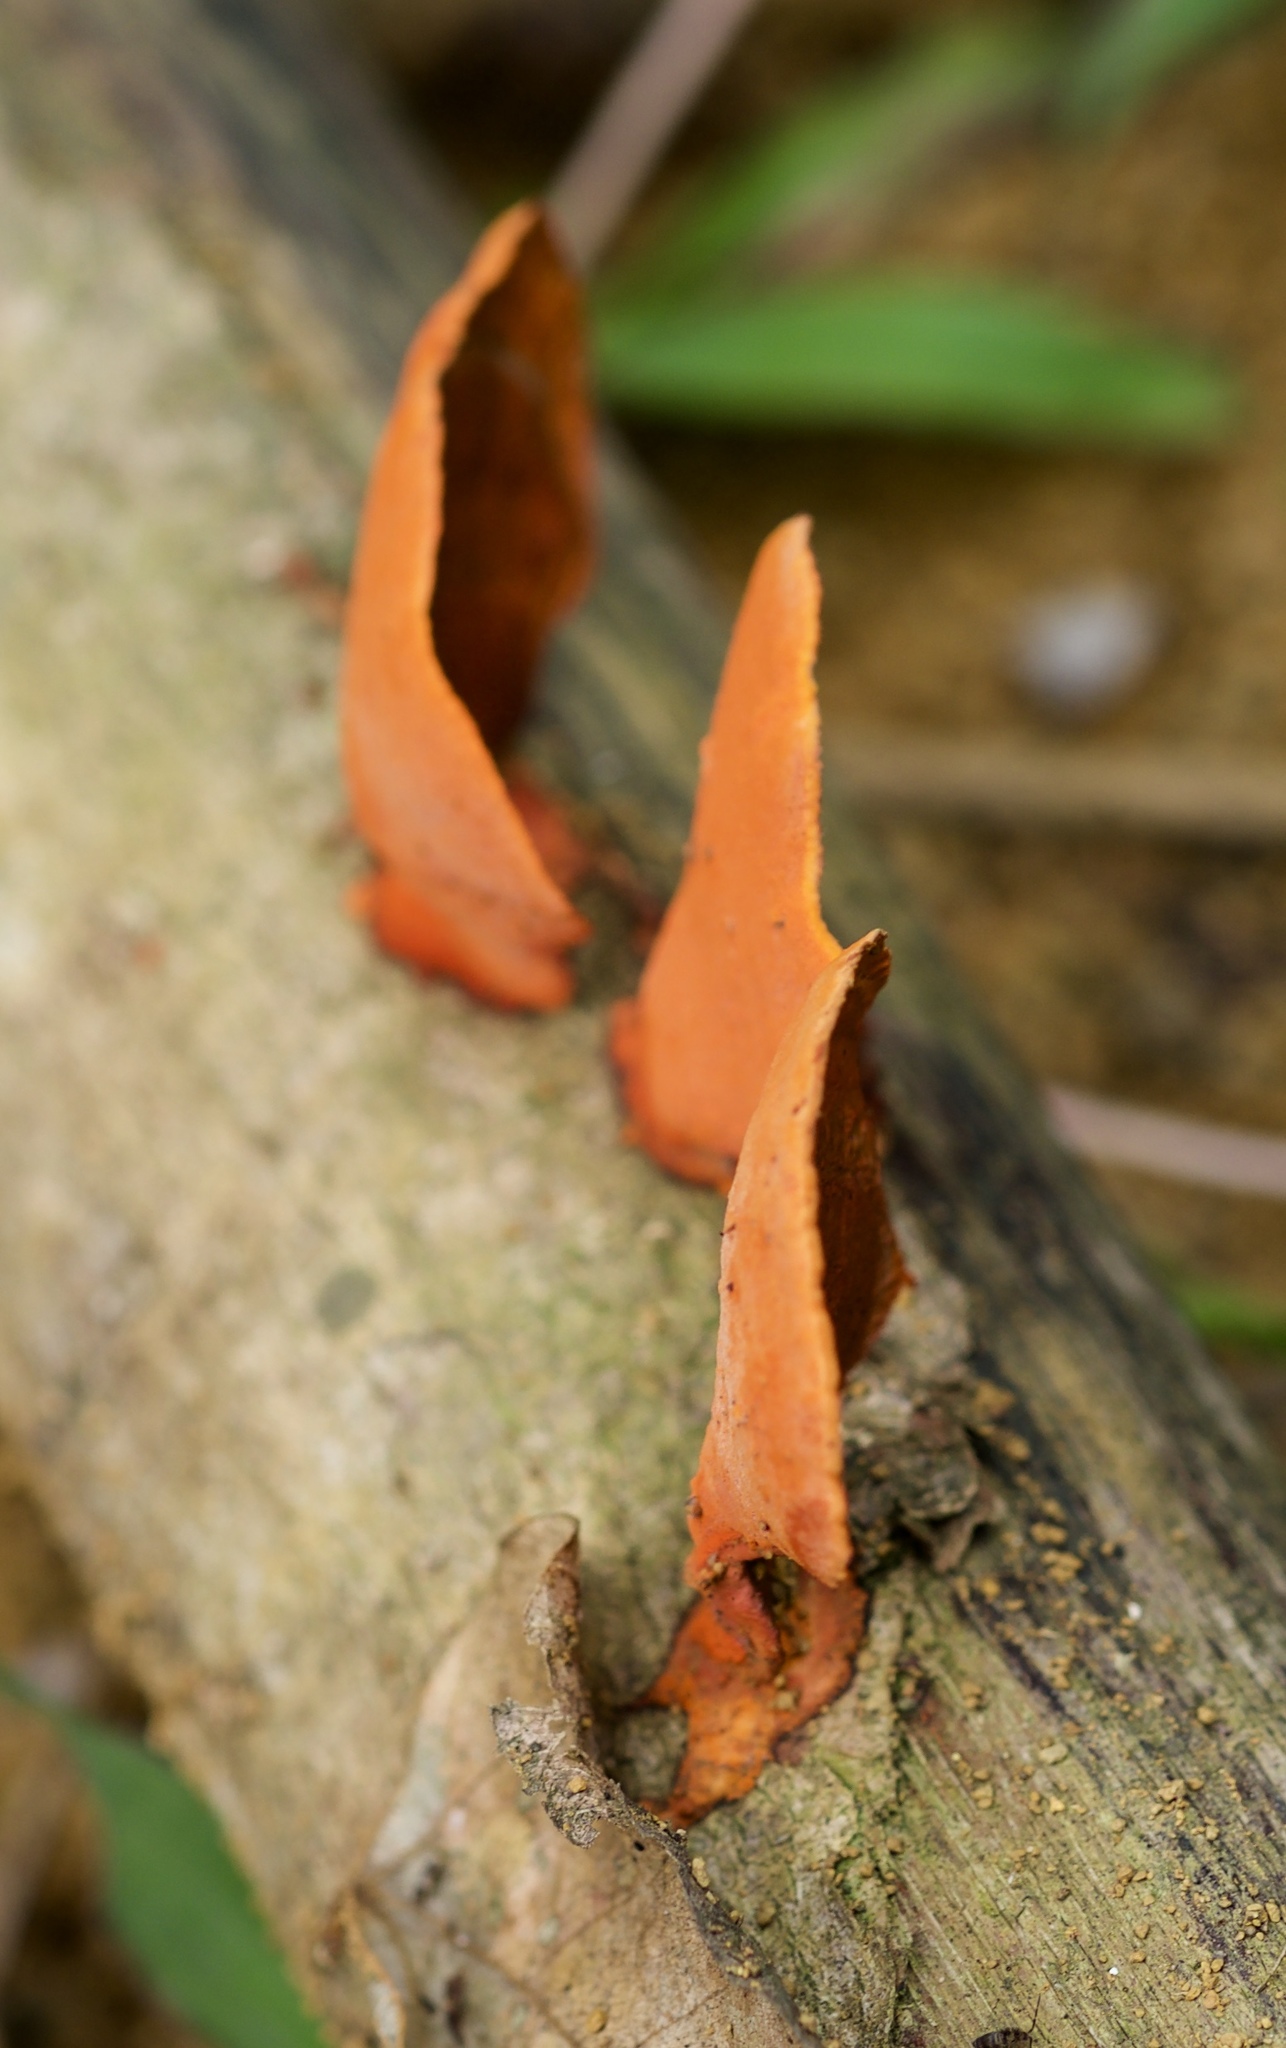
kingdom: Fungi
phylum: Basidiomycota
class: Agaricomycetes
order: Polyporales
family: Polyporaceae
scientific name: Polyporaceae
